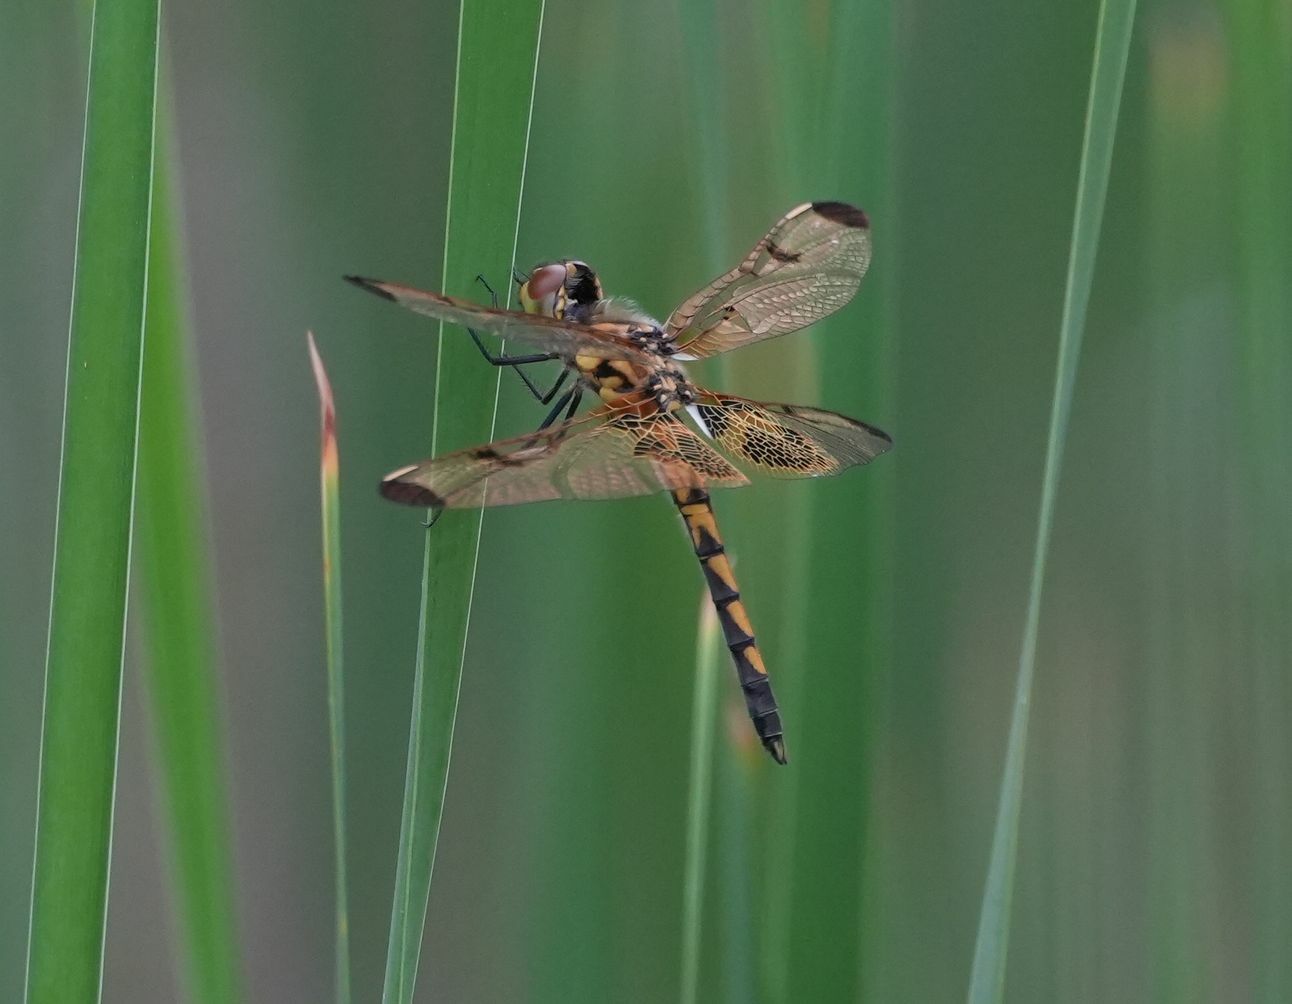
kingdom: Animalia
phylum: Arthropoda
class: Insecta
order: Odonata
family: Libellulidae
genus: Celithemis
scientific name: Celithemis elisa
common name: Calico pennant
